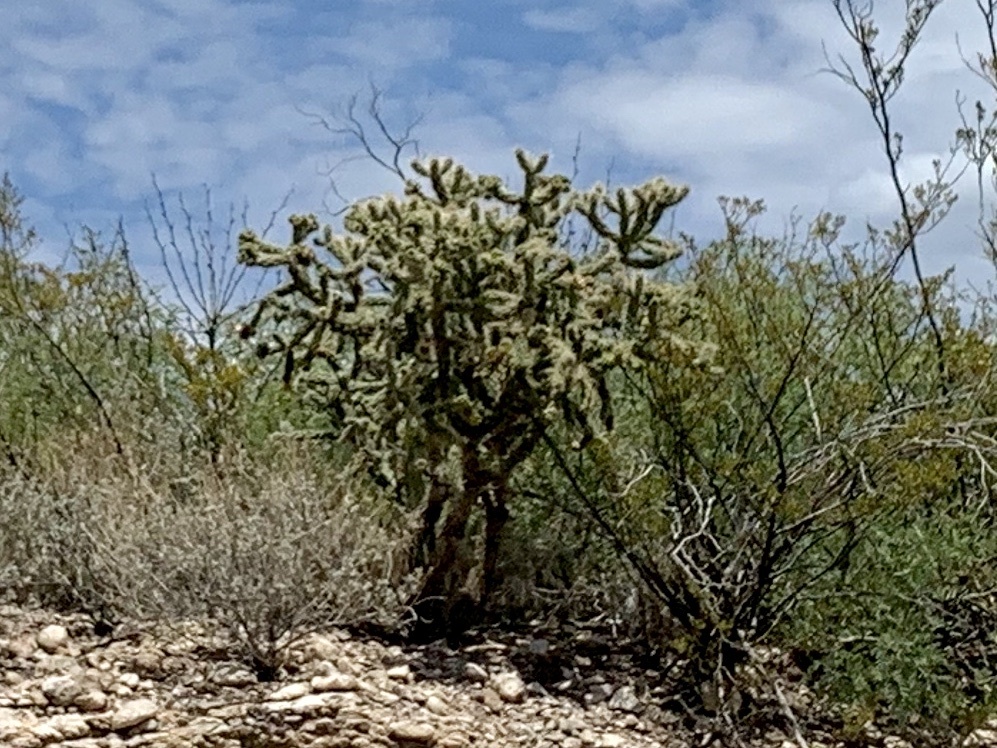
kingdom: Plantae
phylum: Tracheophyta
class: Magnoliopsida
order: Caryophyllales
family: Cactaceae
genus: Cylindropuntia
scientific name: Cylindropuntia imbricata
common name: Candelabrum cactus
